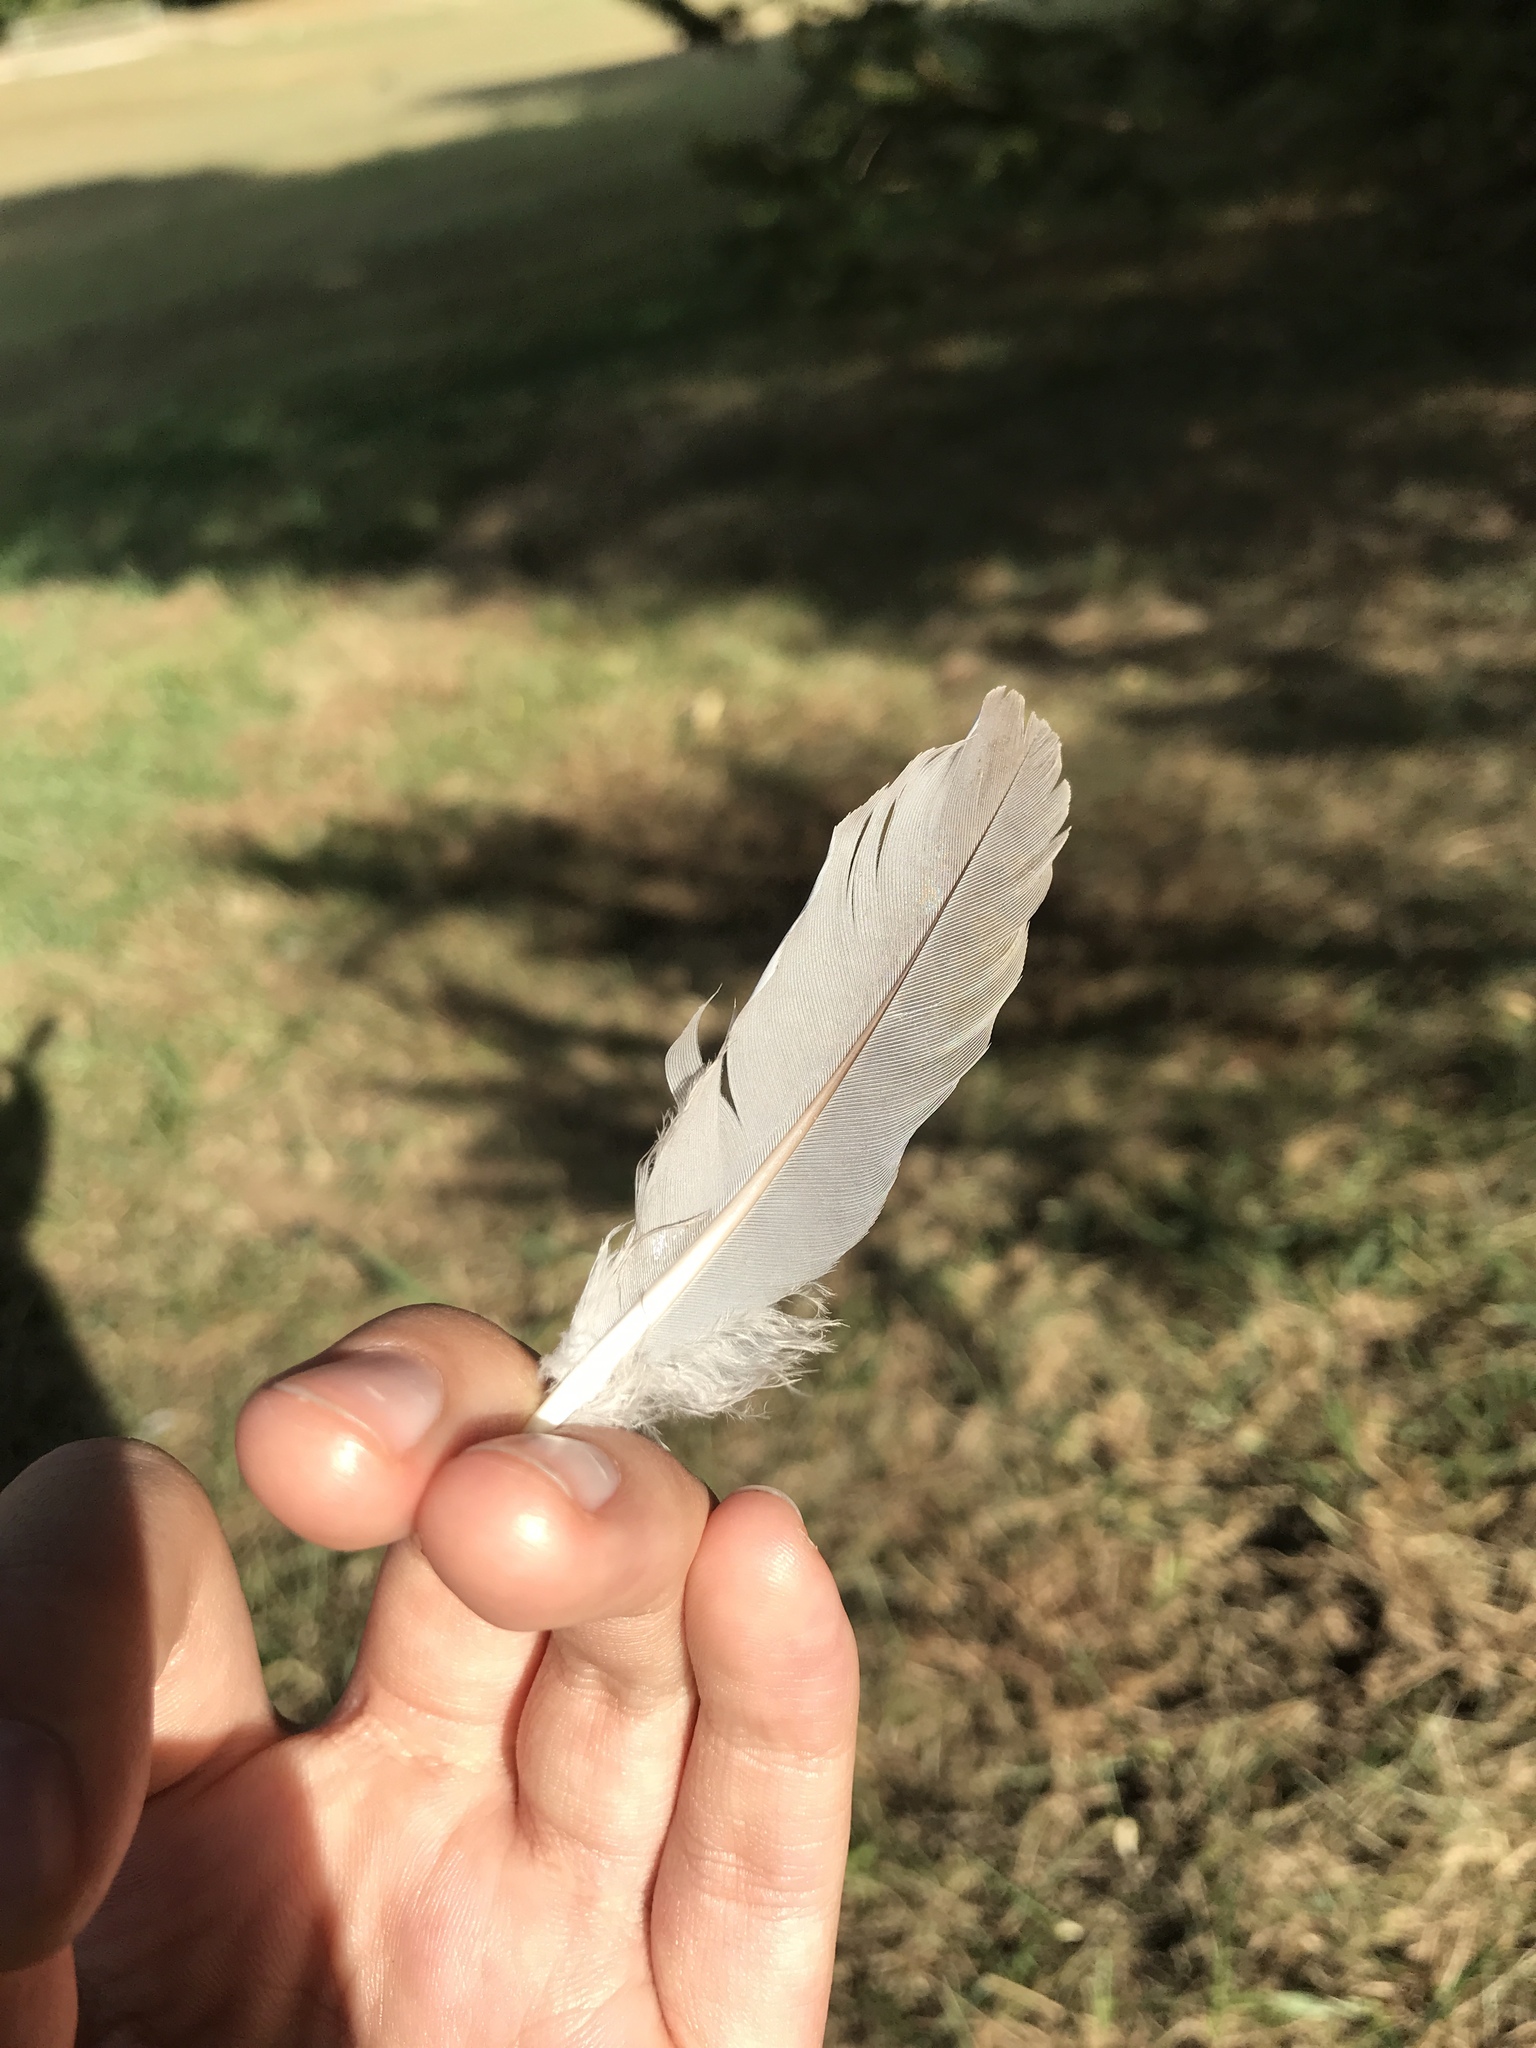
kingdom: Animalia
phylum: Chordata
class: Aves
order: Columbiformes
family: Columbidae
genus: Zenaida
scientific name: Zenaida macroura
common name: Mourning dove
